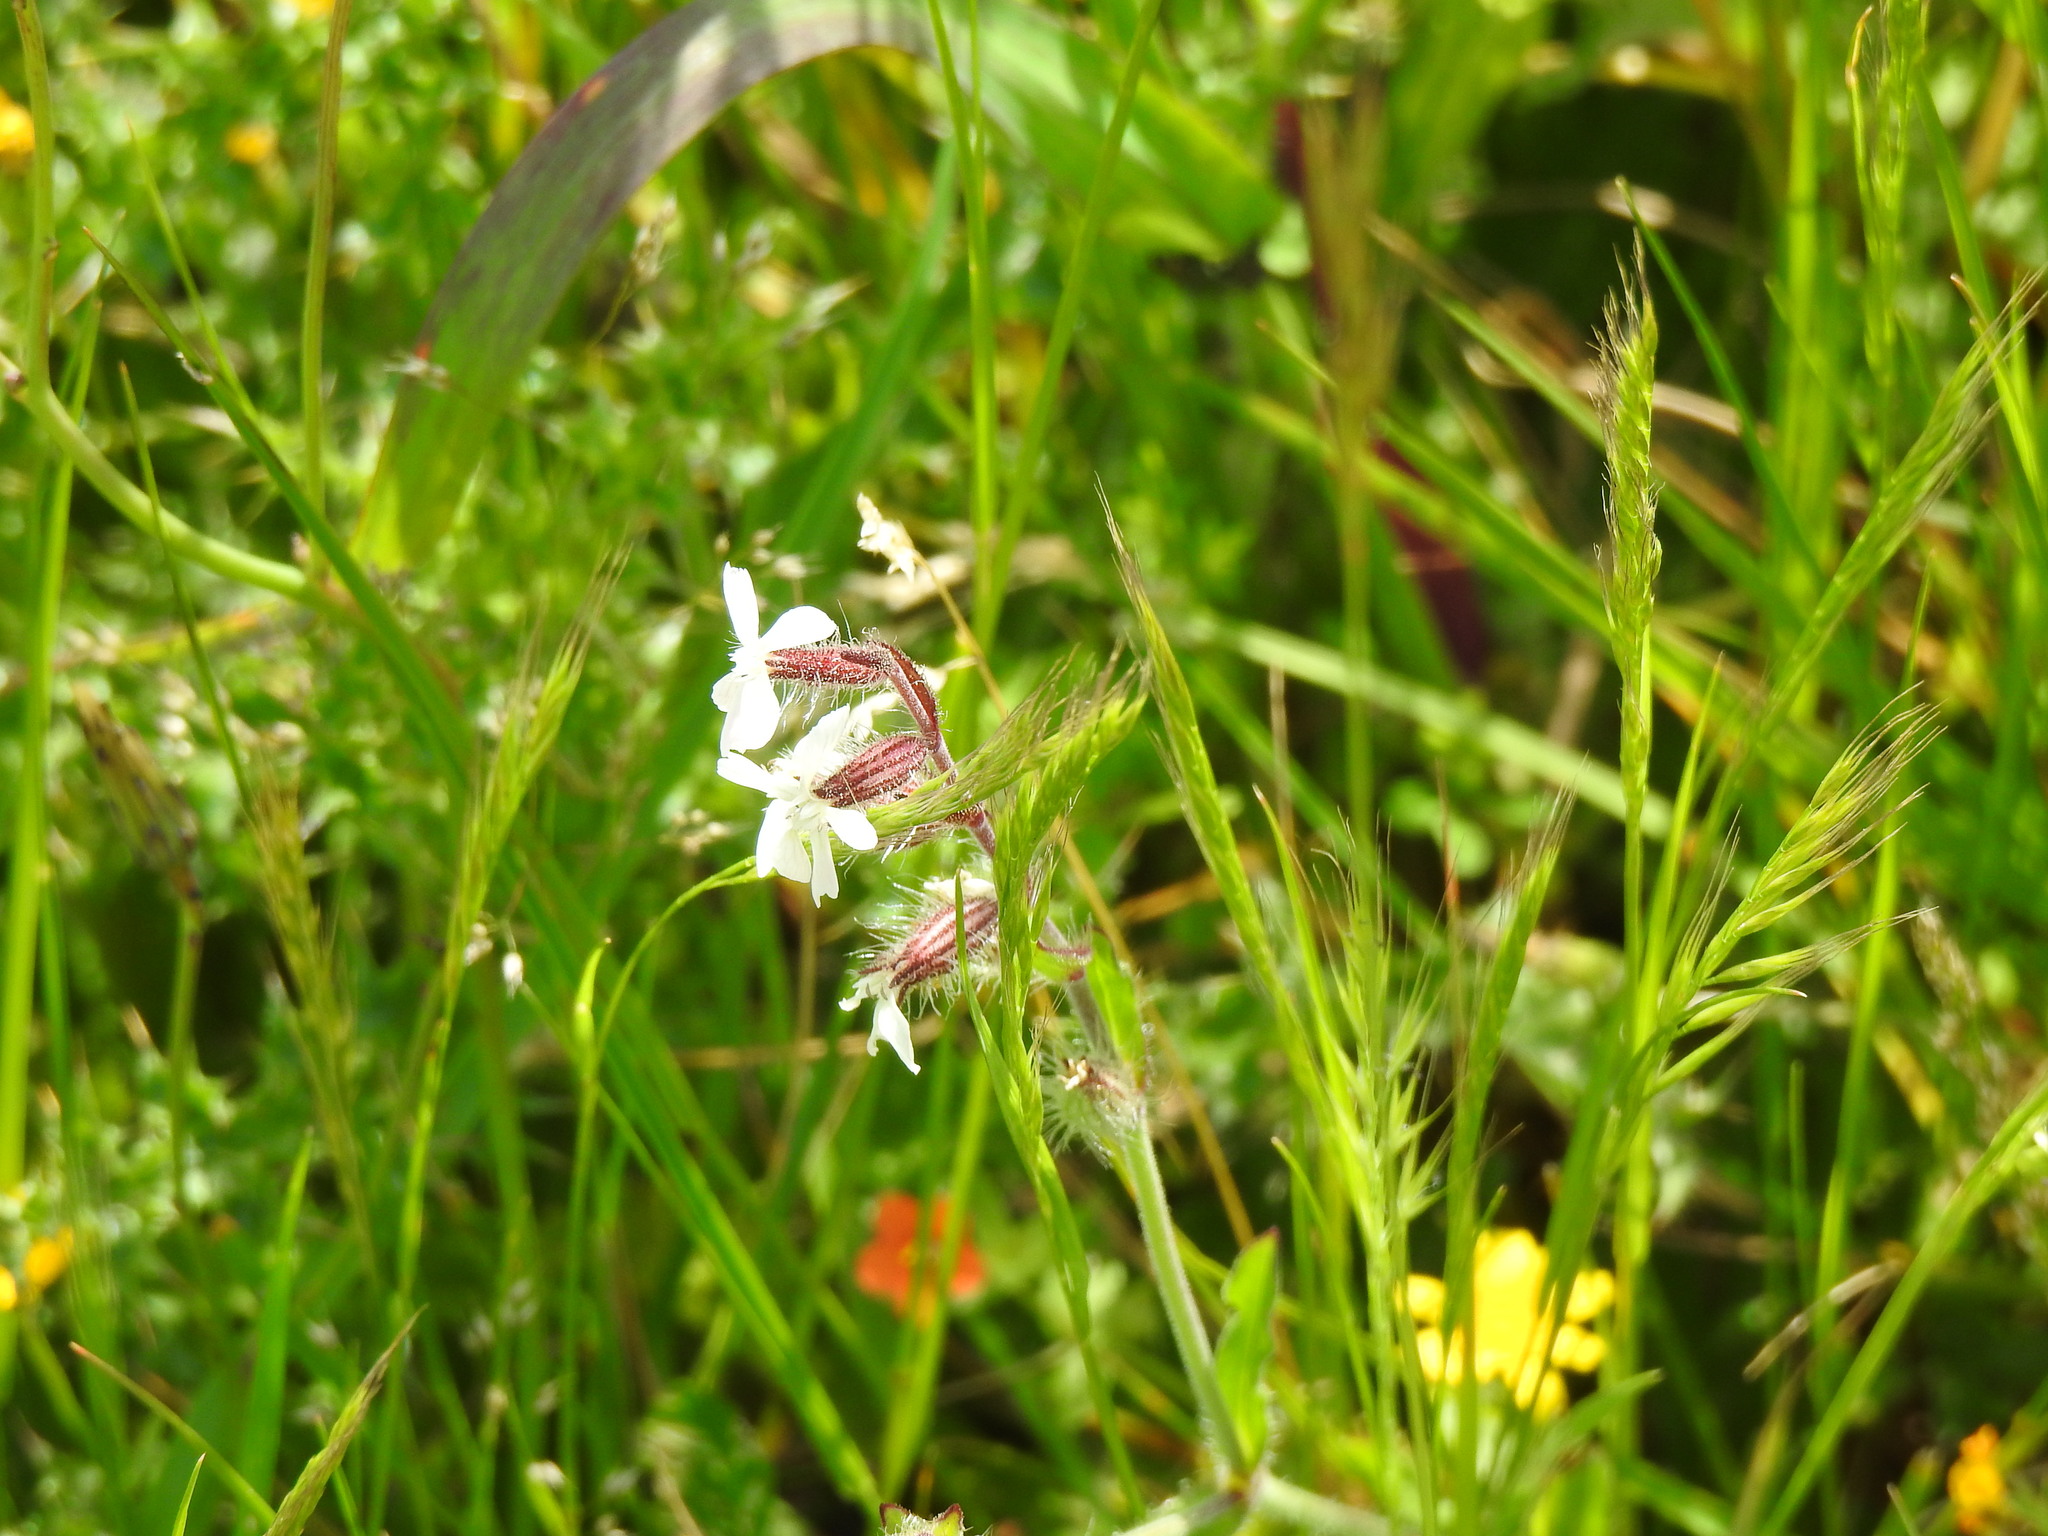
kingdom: Plantae
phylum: Tracheophyta
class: Magnoliopsida
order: Caryophyllales
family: Caryophyllaceae
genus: Silene
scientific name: Silene gallica
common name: Small-flowered catchfly
